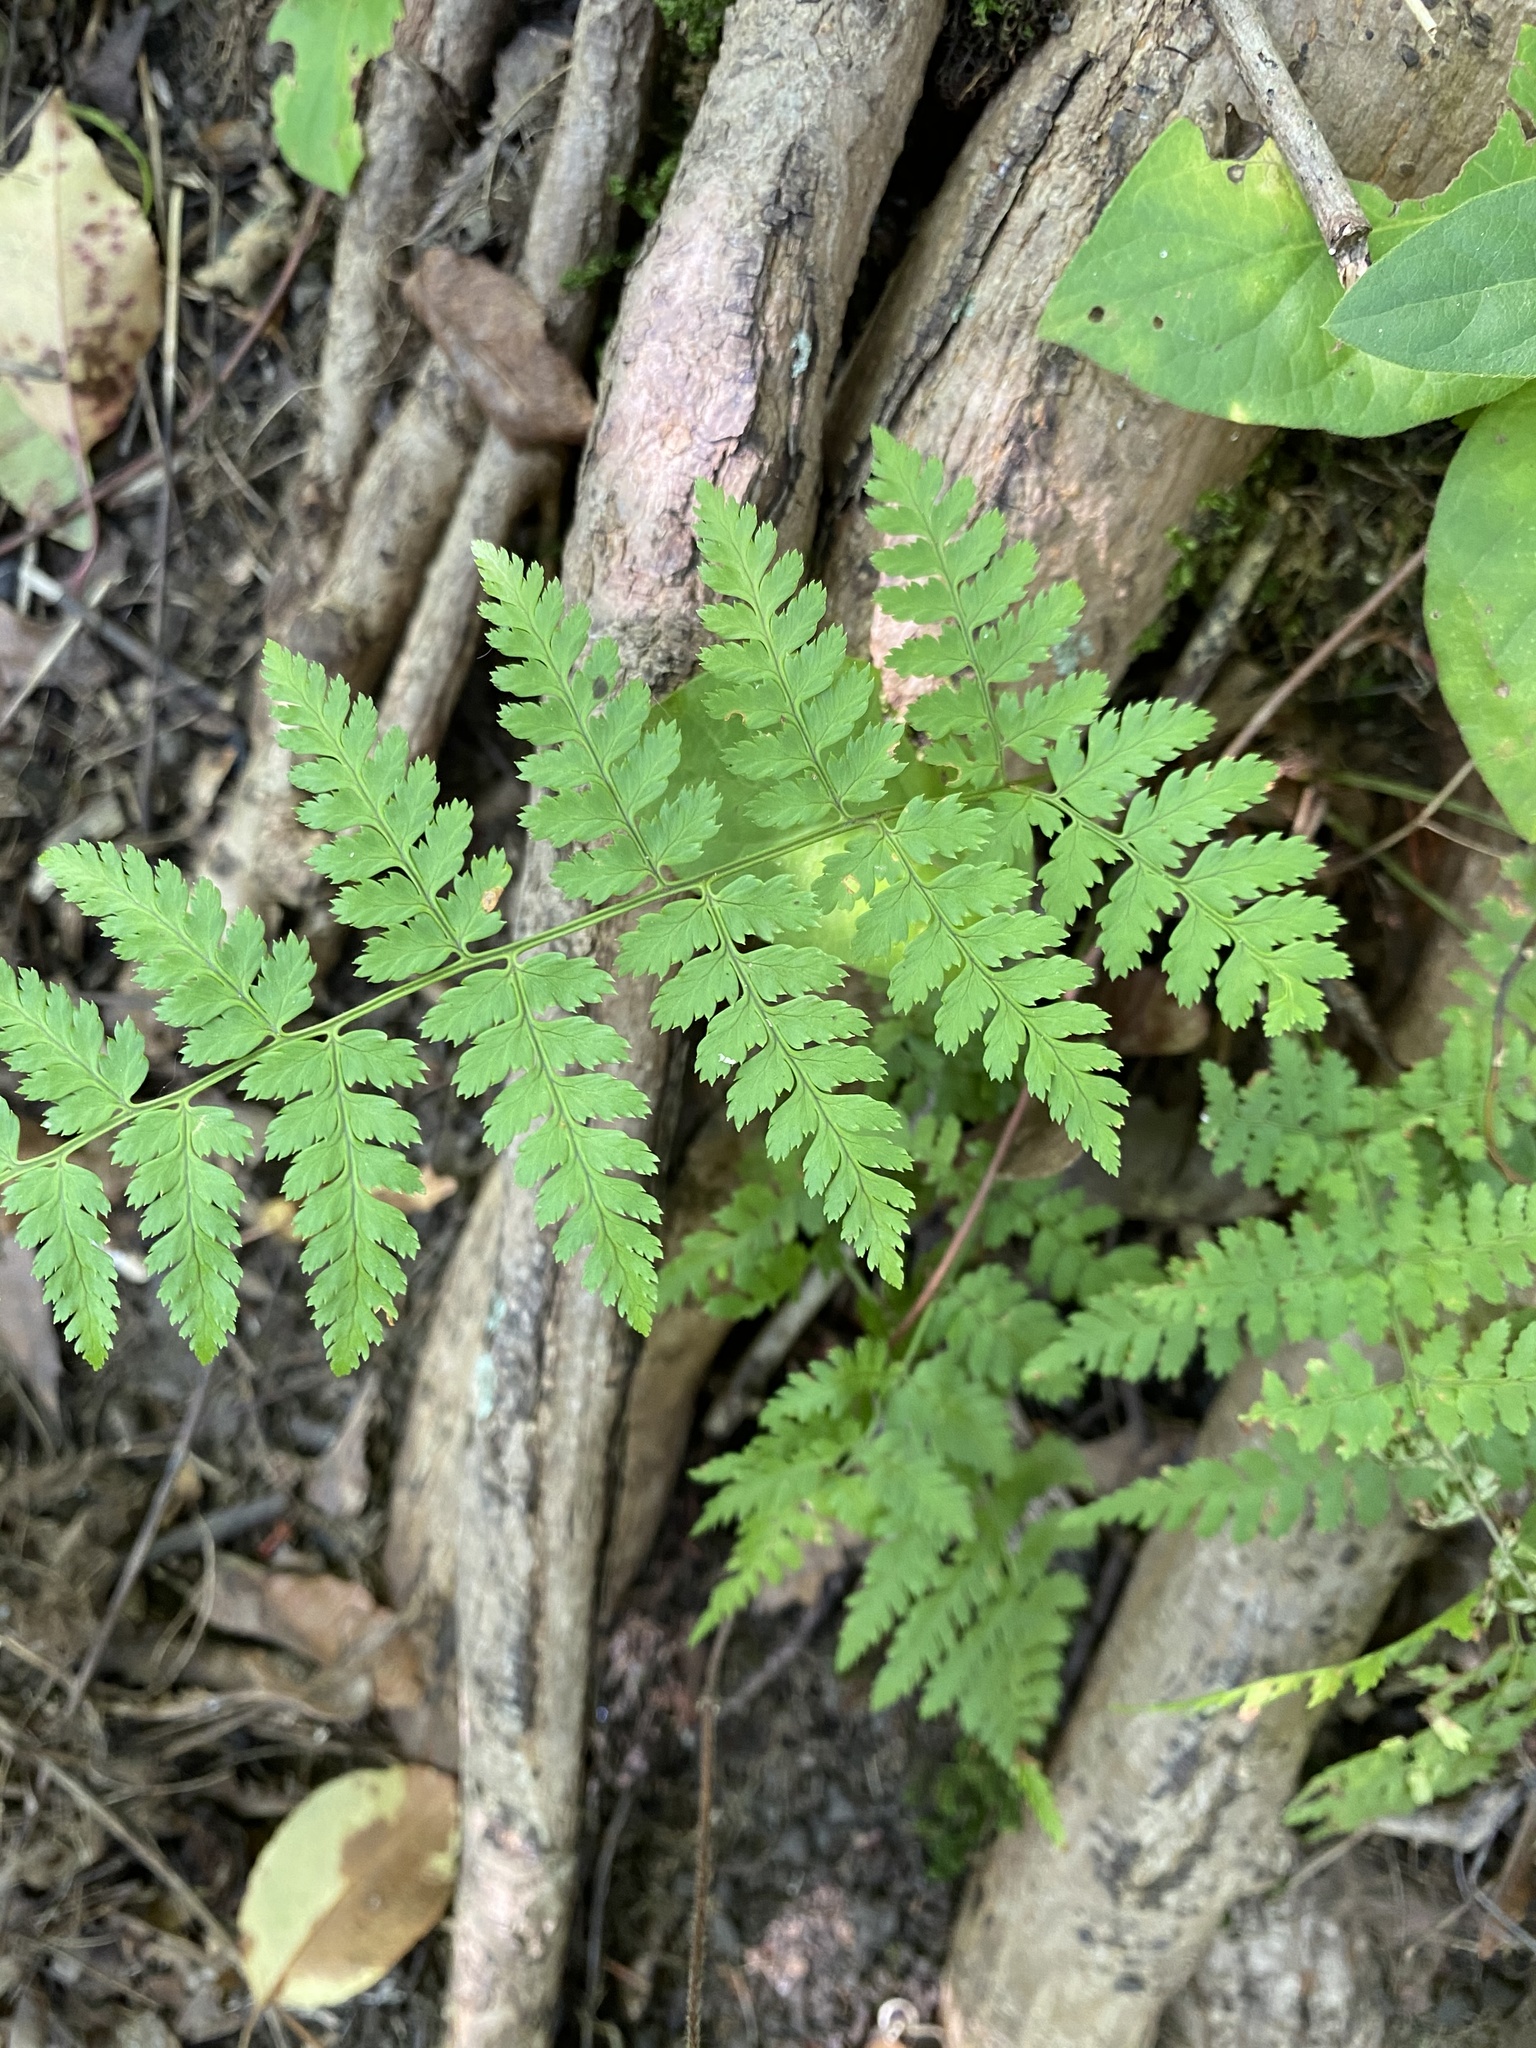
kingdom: Plantae
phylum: Tracheophyta
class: Polypodiopsida
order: Polypodiales
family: Dryopteridaceae
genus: Dryopteris
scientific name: Dryopteris carthusiana
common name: Narrow buckler-fern
